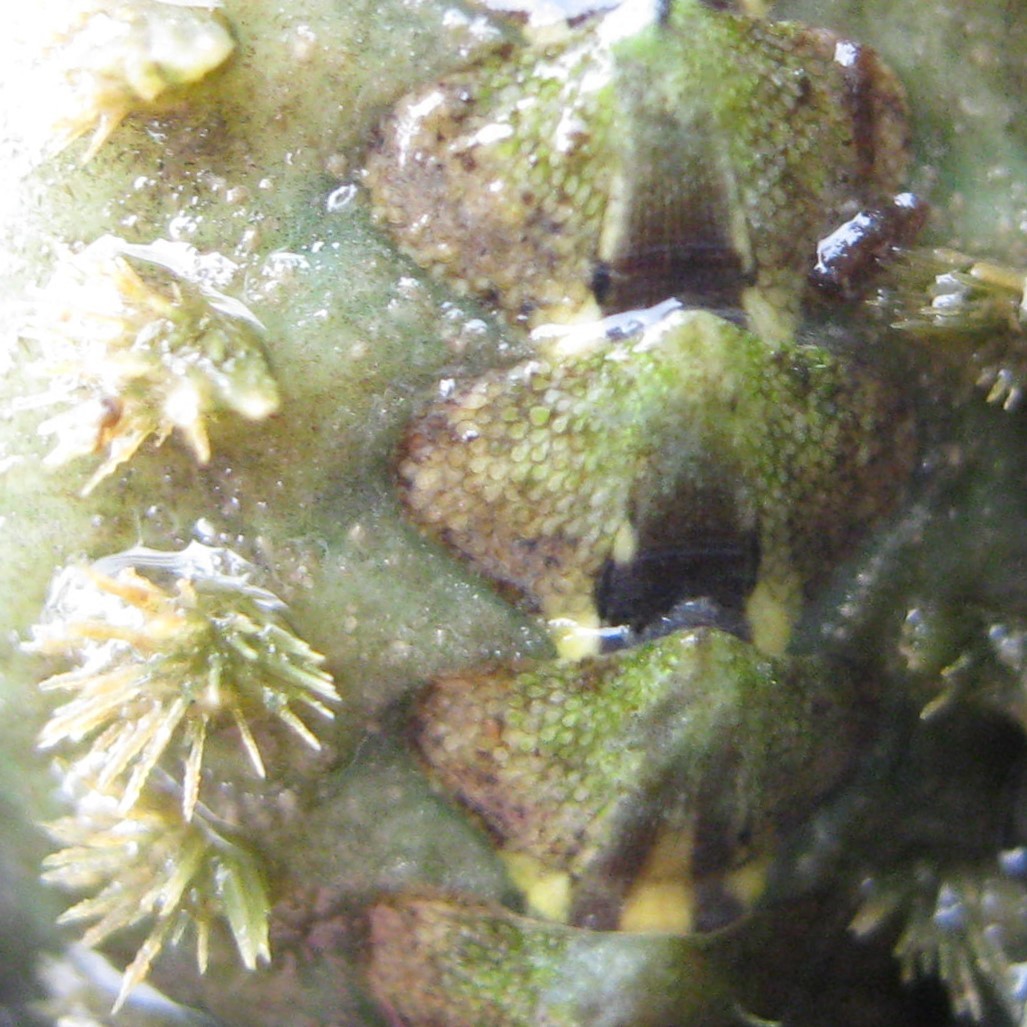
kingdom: Animalia
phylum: Mollusca
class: Polyplacophora
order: Chitonida
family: Acanthochitonidae
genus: Acanthochitona
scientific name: Acanthochitona zelandica
